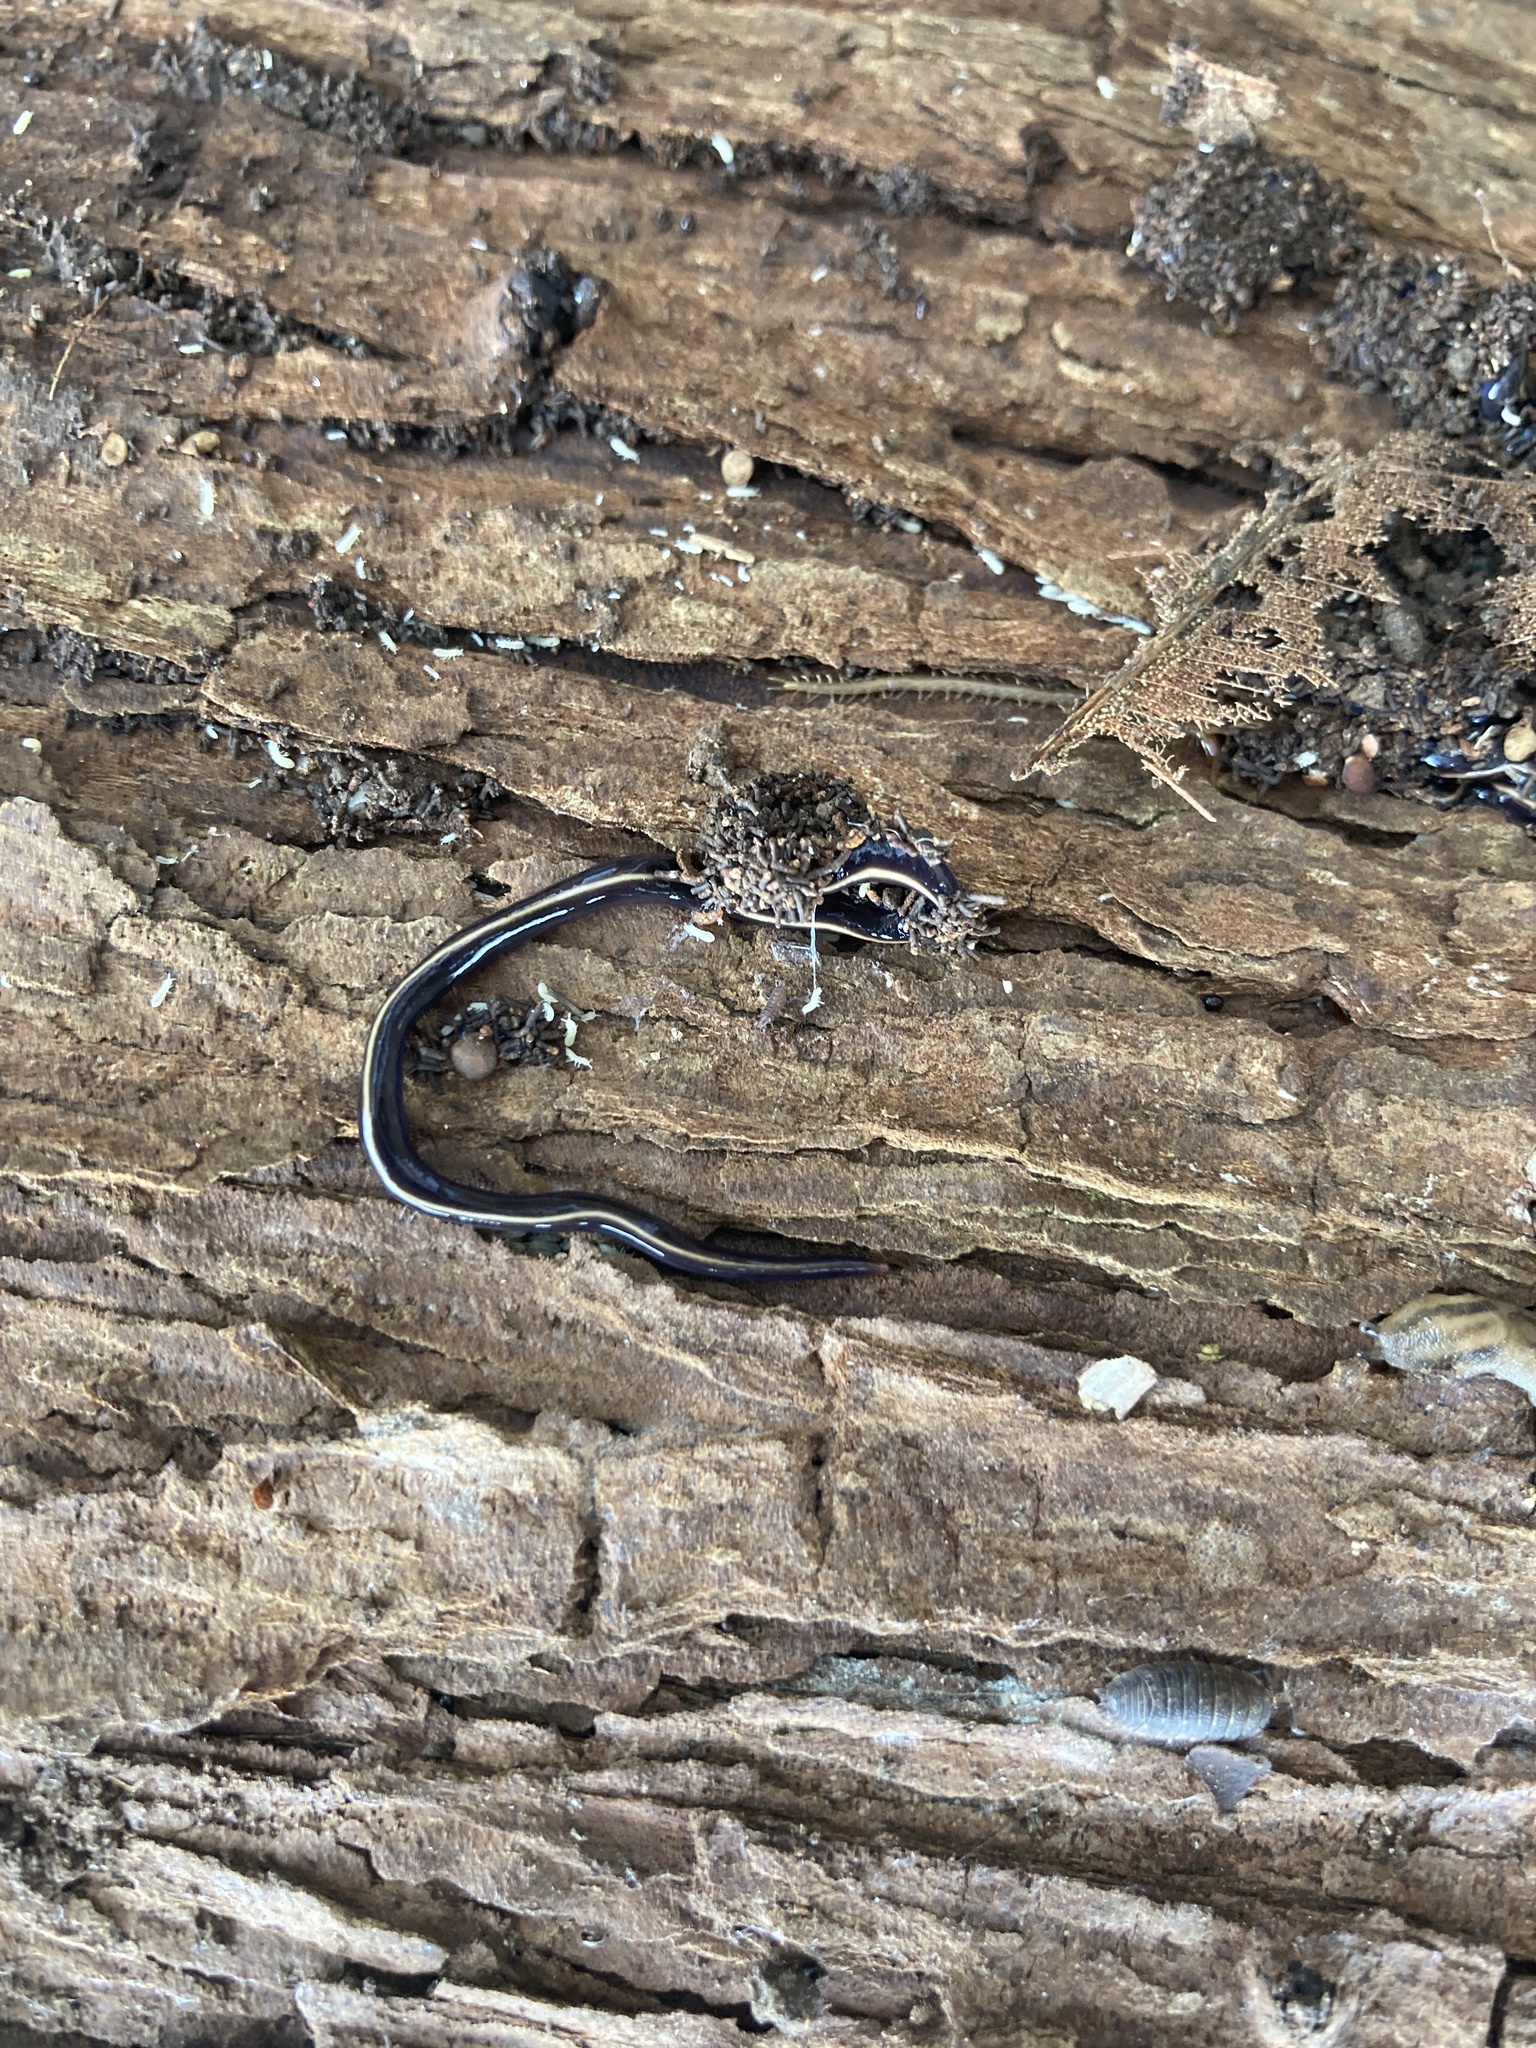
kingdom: Animalia
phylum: Platyhelminthes
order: Tricladida
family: Geoplanidae
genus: Caenoplana
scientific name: Caenoplana coerulea
